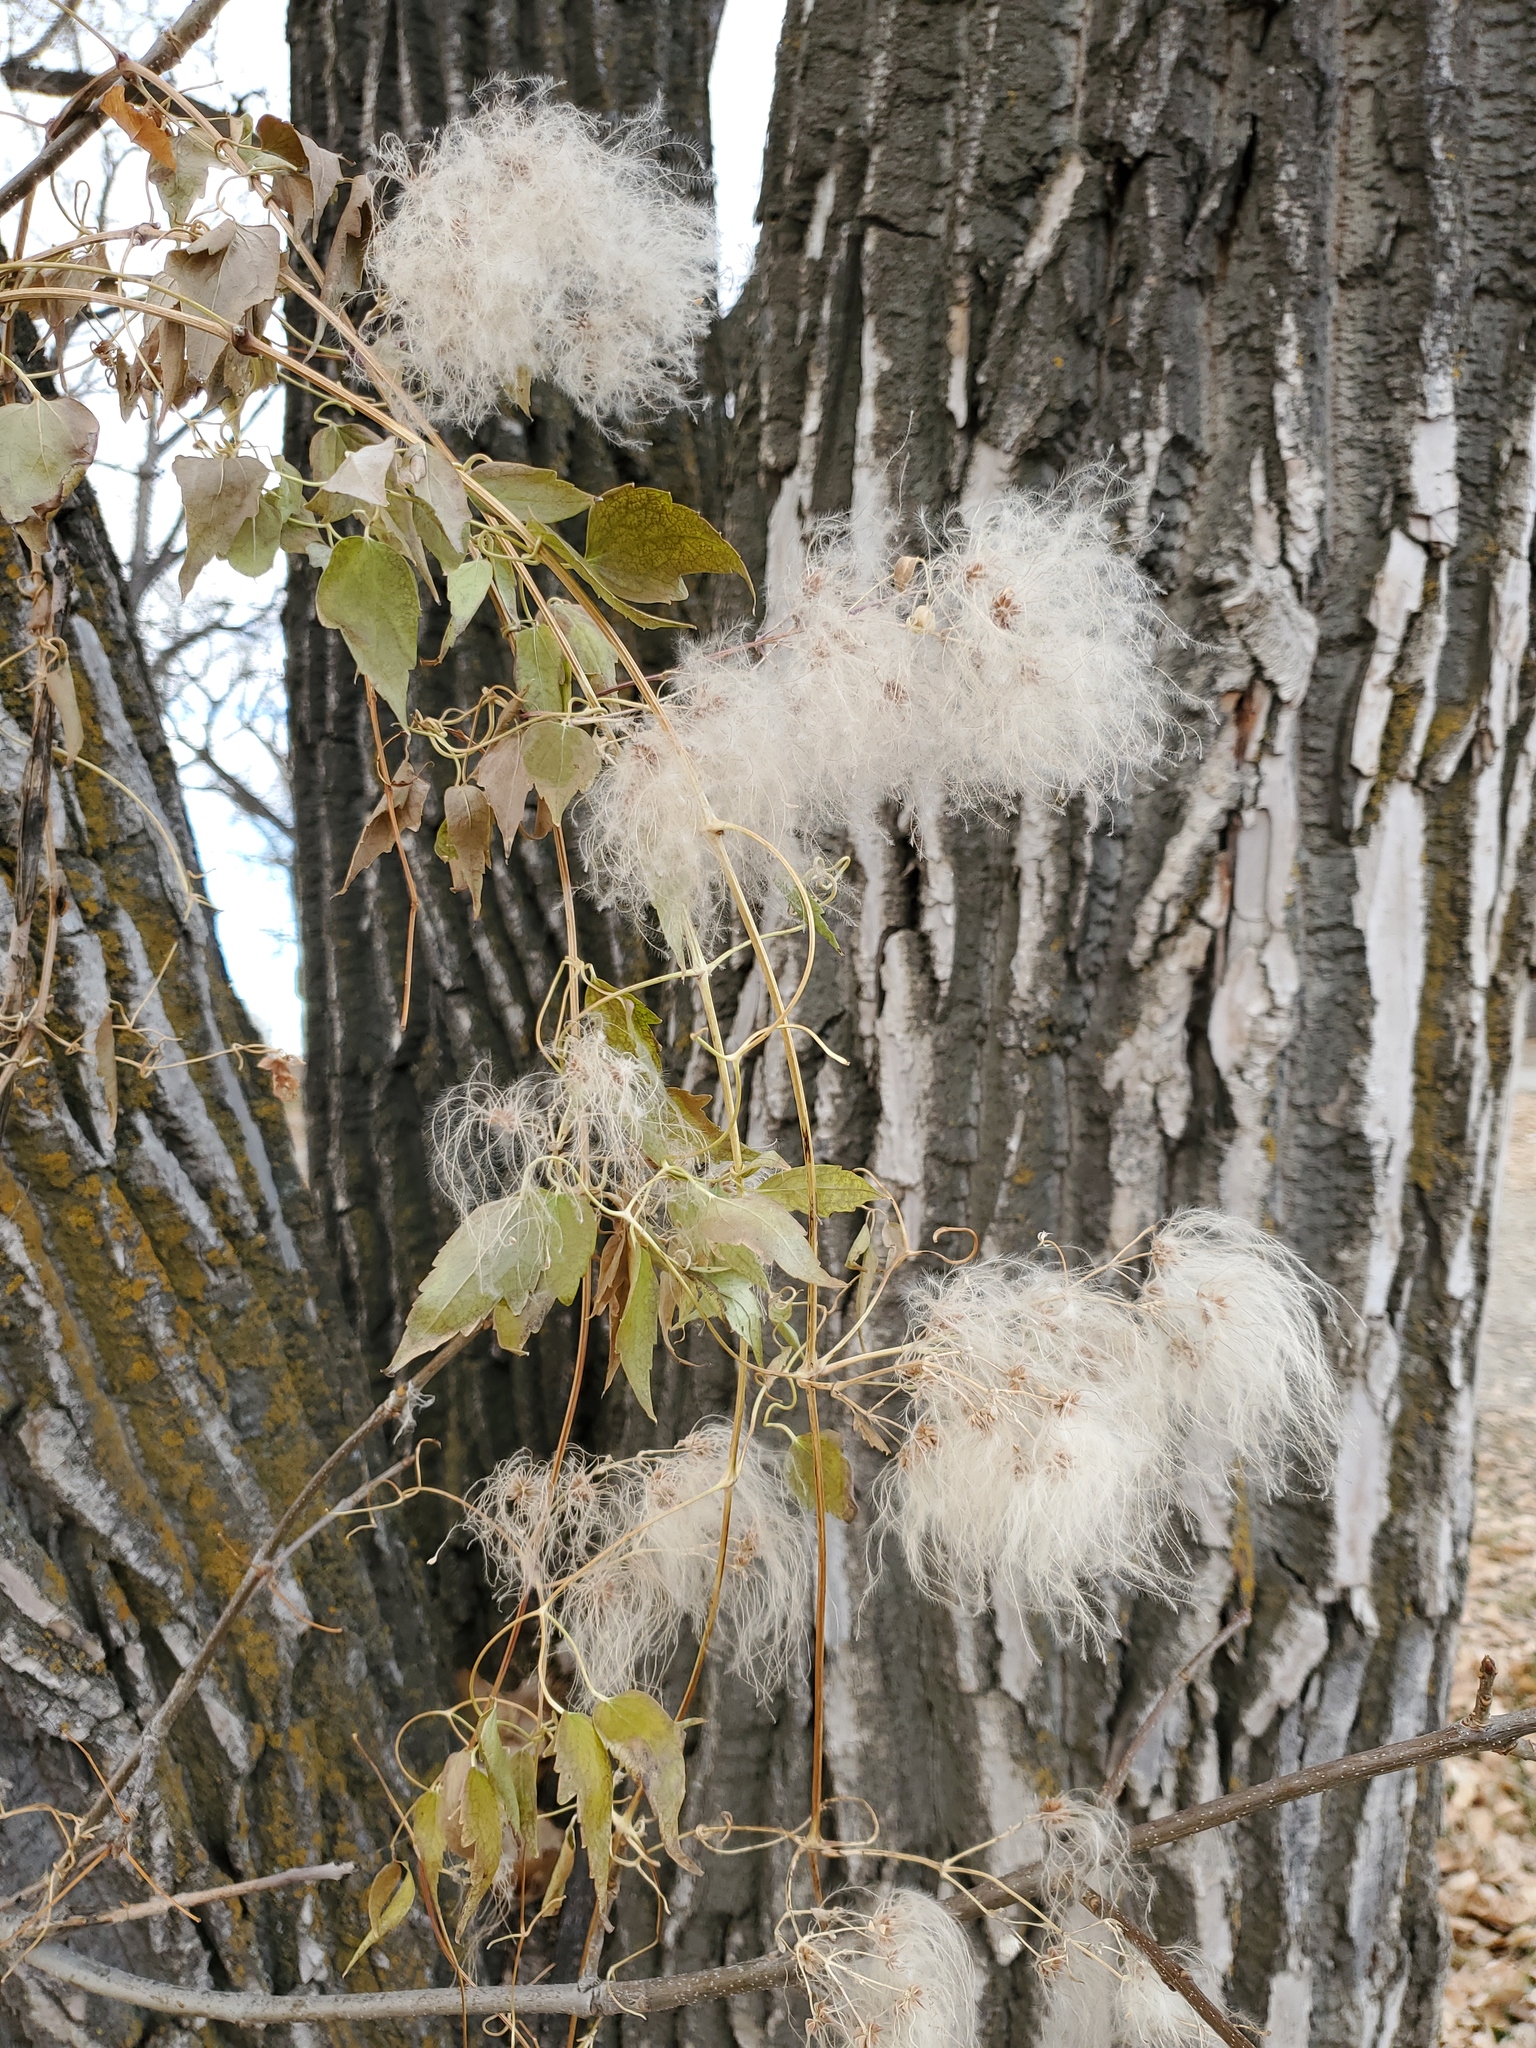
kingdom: Plantae
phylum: Tracheophyta
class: Magnoliopsida
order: Ranunculales
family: Ranunculaceae
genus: Clematis
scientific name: Clematis ligusticifolia
